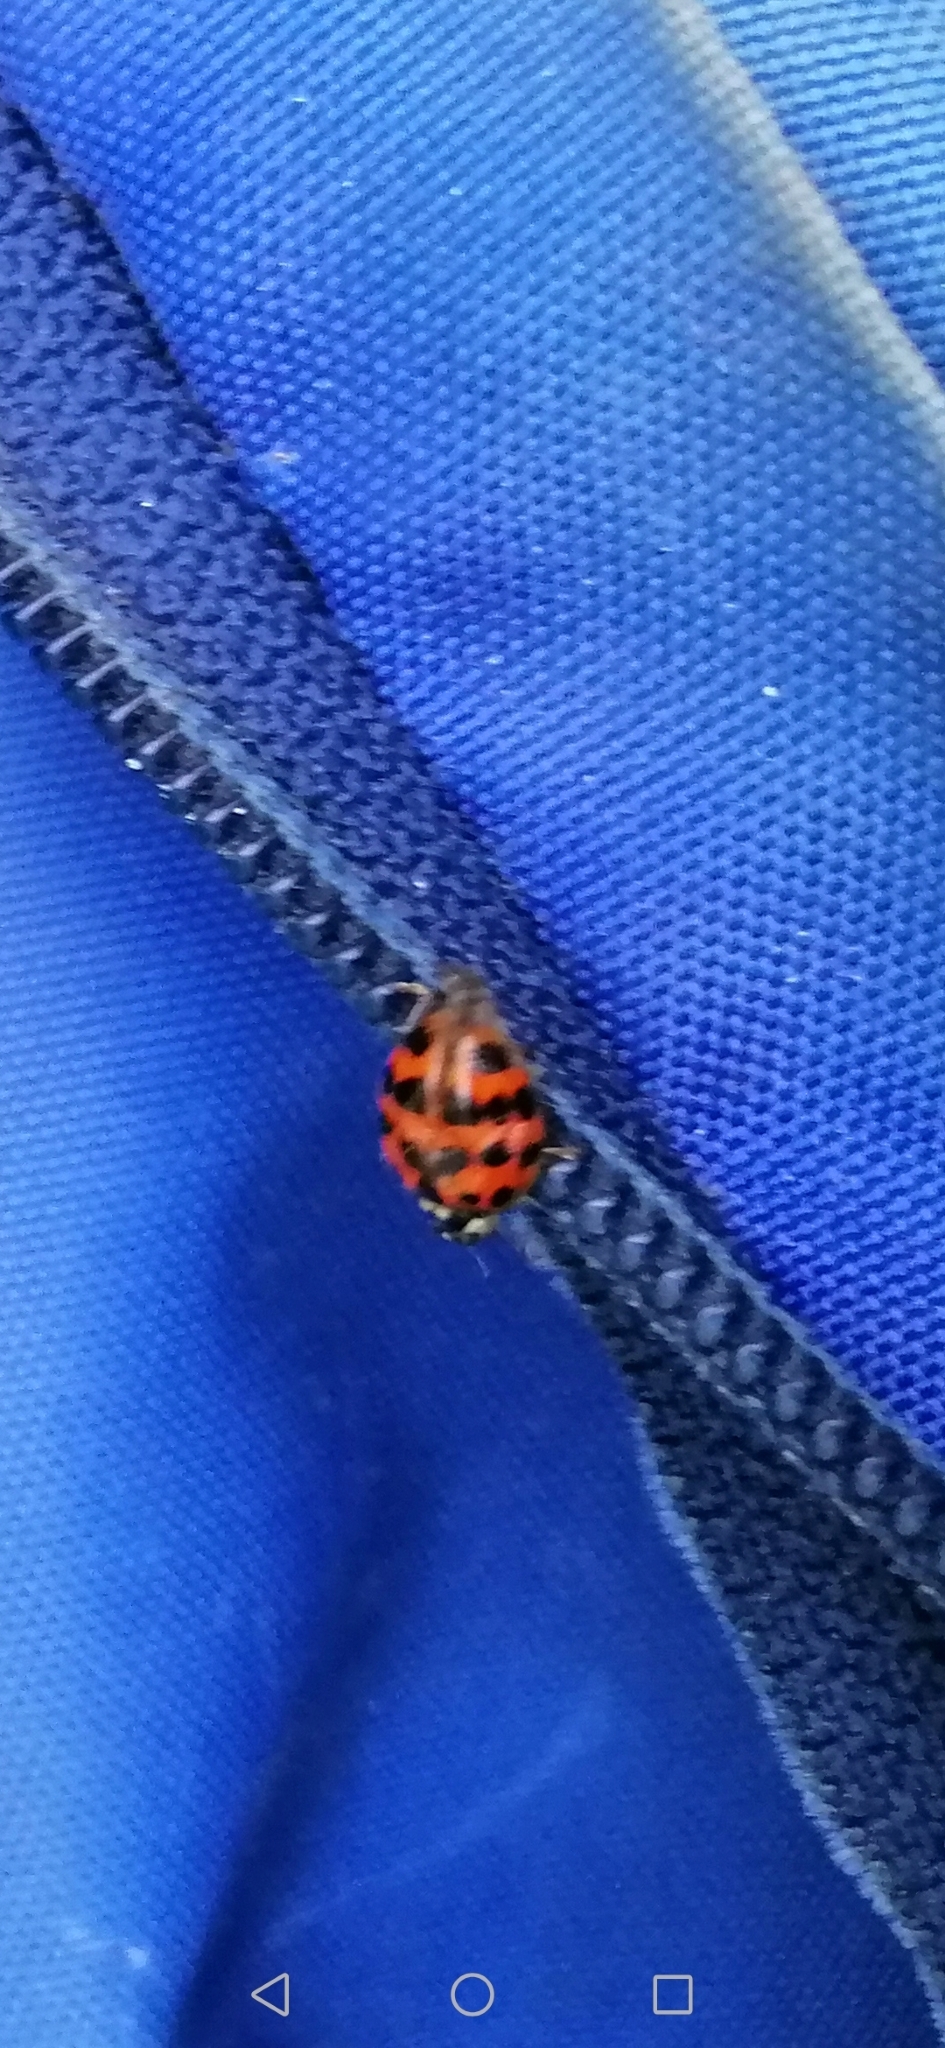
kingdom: Animalia
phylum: Arthropoda
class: Insecta
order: Coleoptera
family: Coccinellidae
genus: Harmonia
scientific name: Harmonia axyridis
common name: Harlequin ladybird
